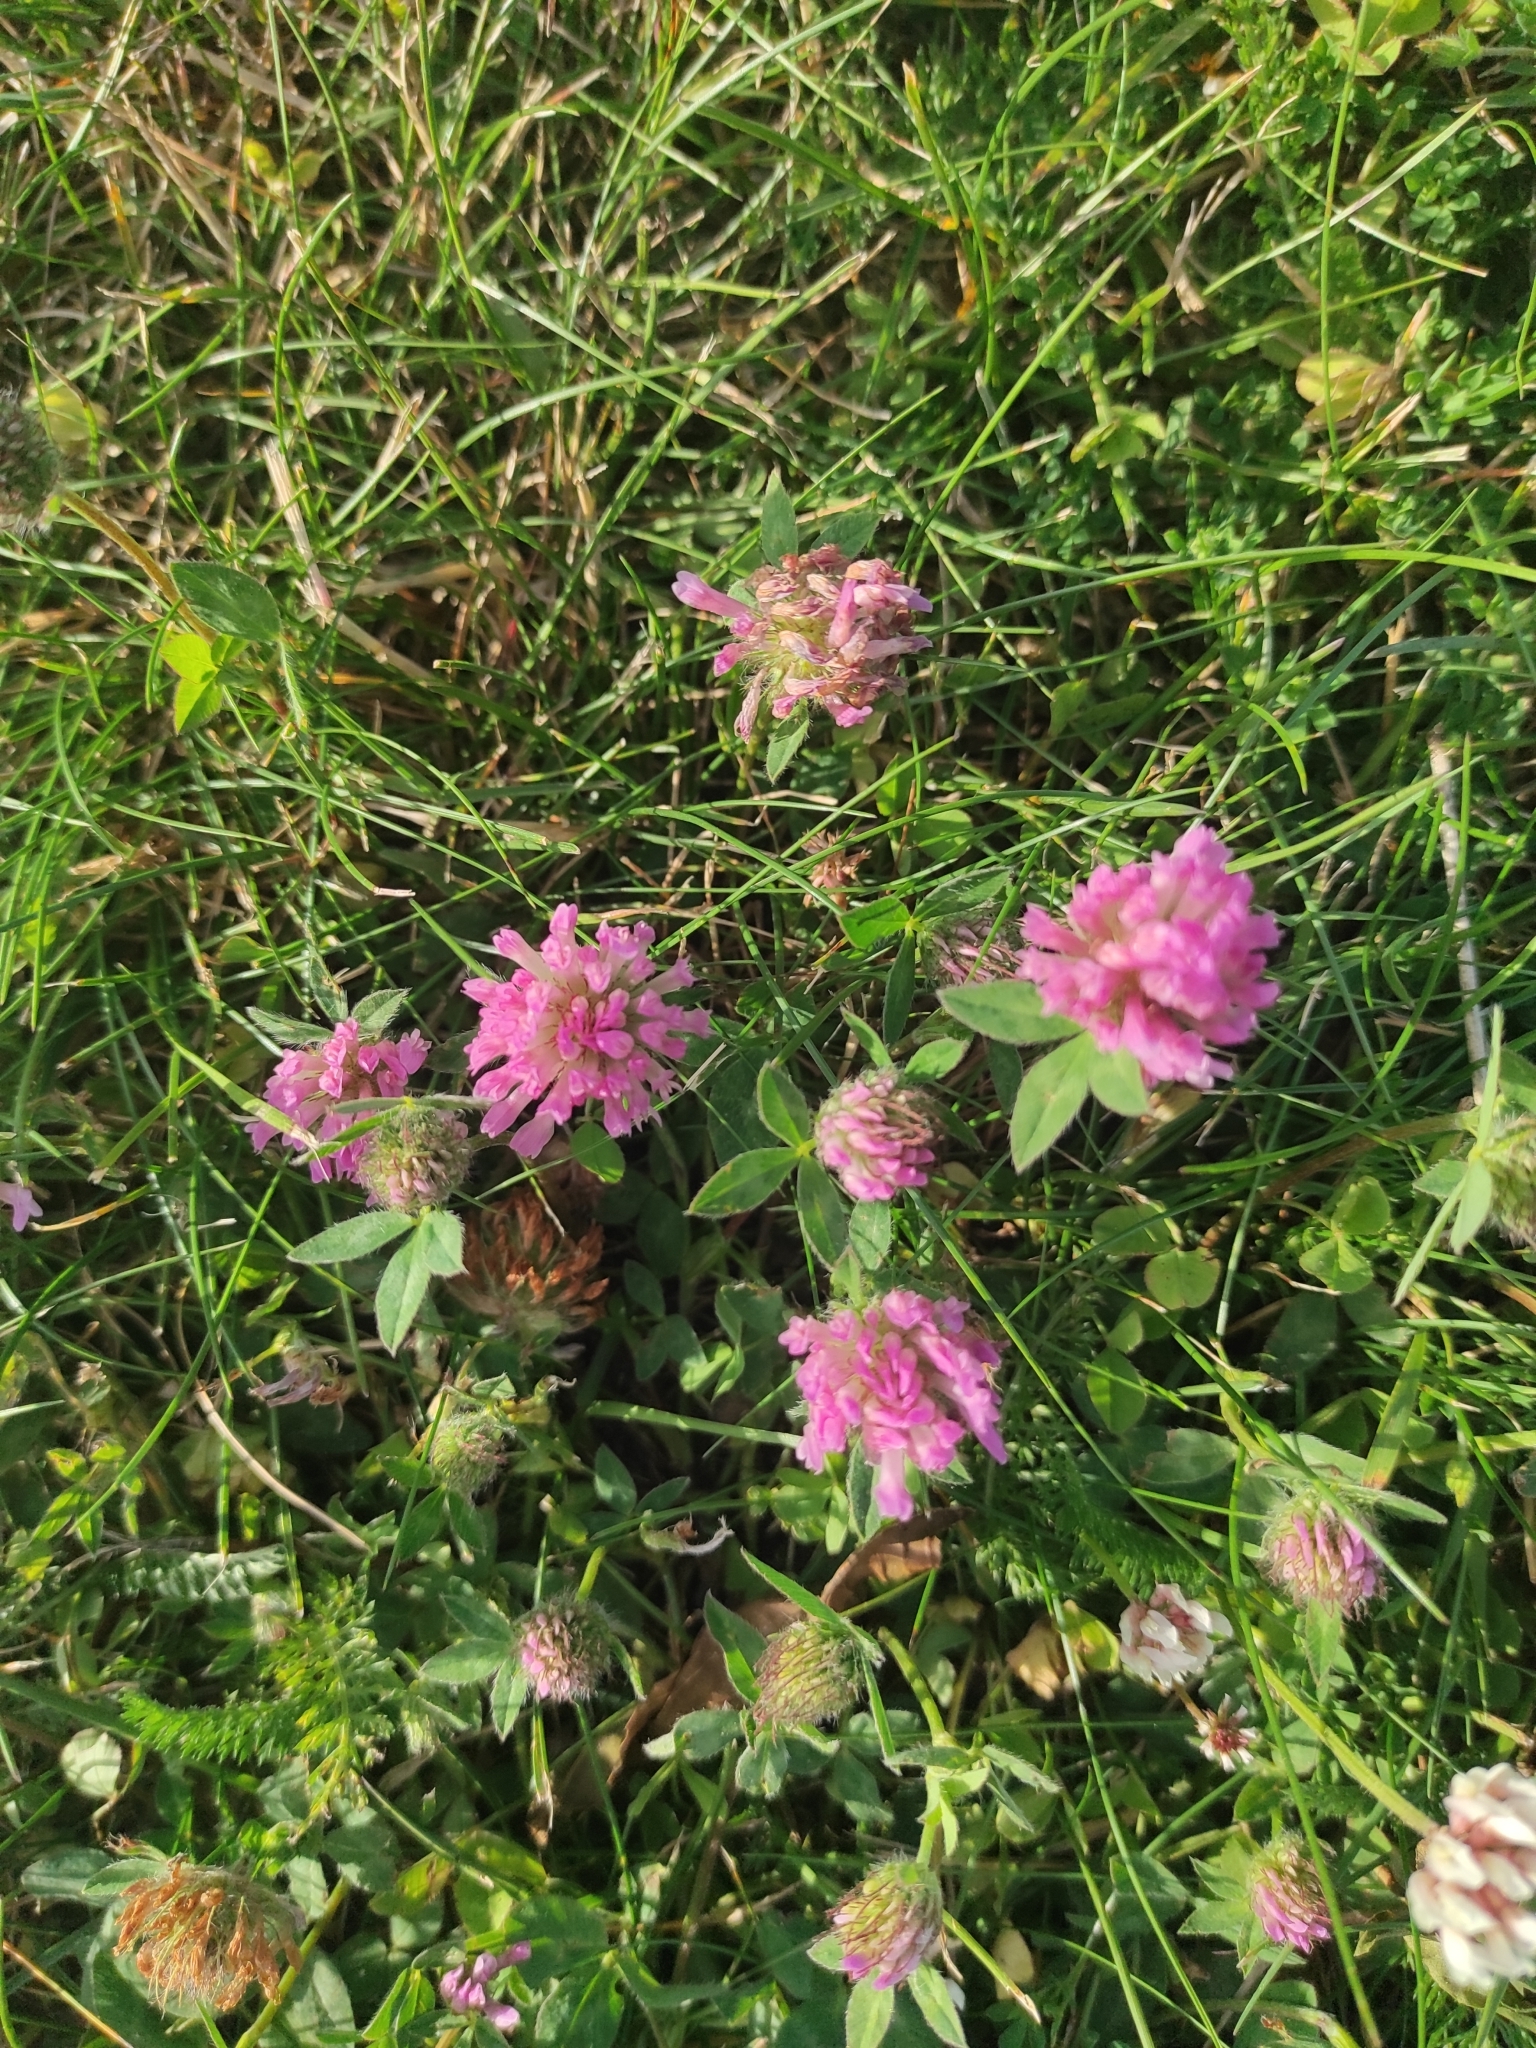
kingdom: Plantae
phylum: Tracheophyta
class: Magnoliopsida
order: Fabales
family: Fabaceae
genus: Trifolium
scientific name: Trifolium pratense
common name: Red clover
